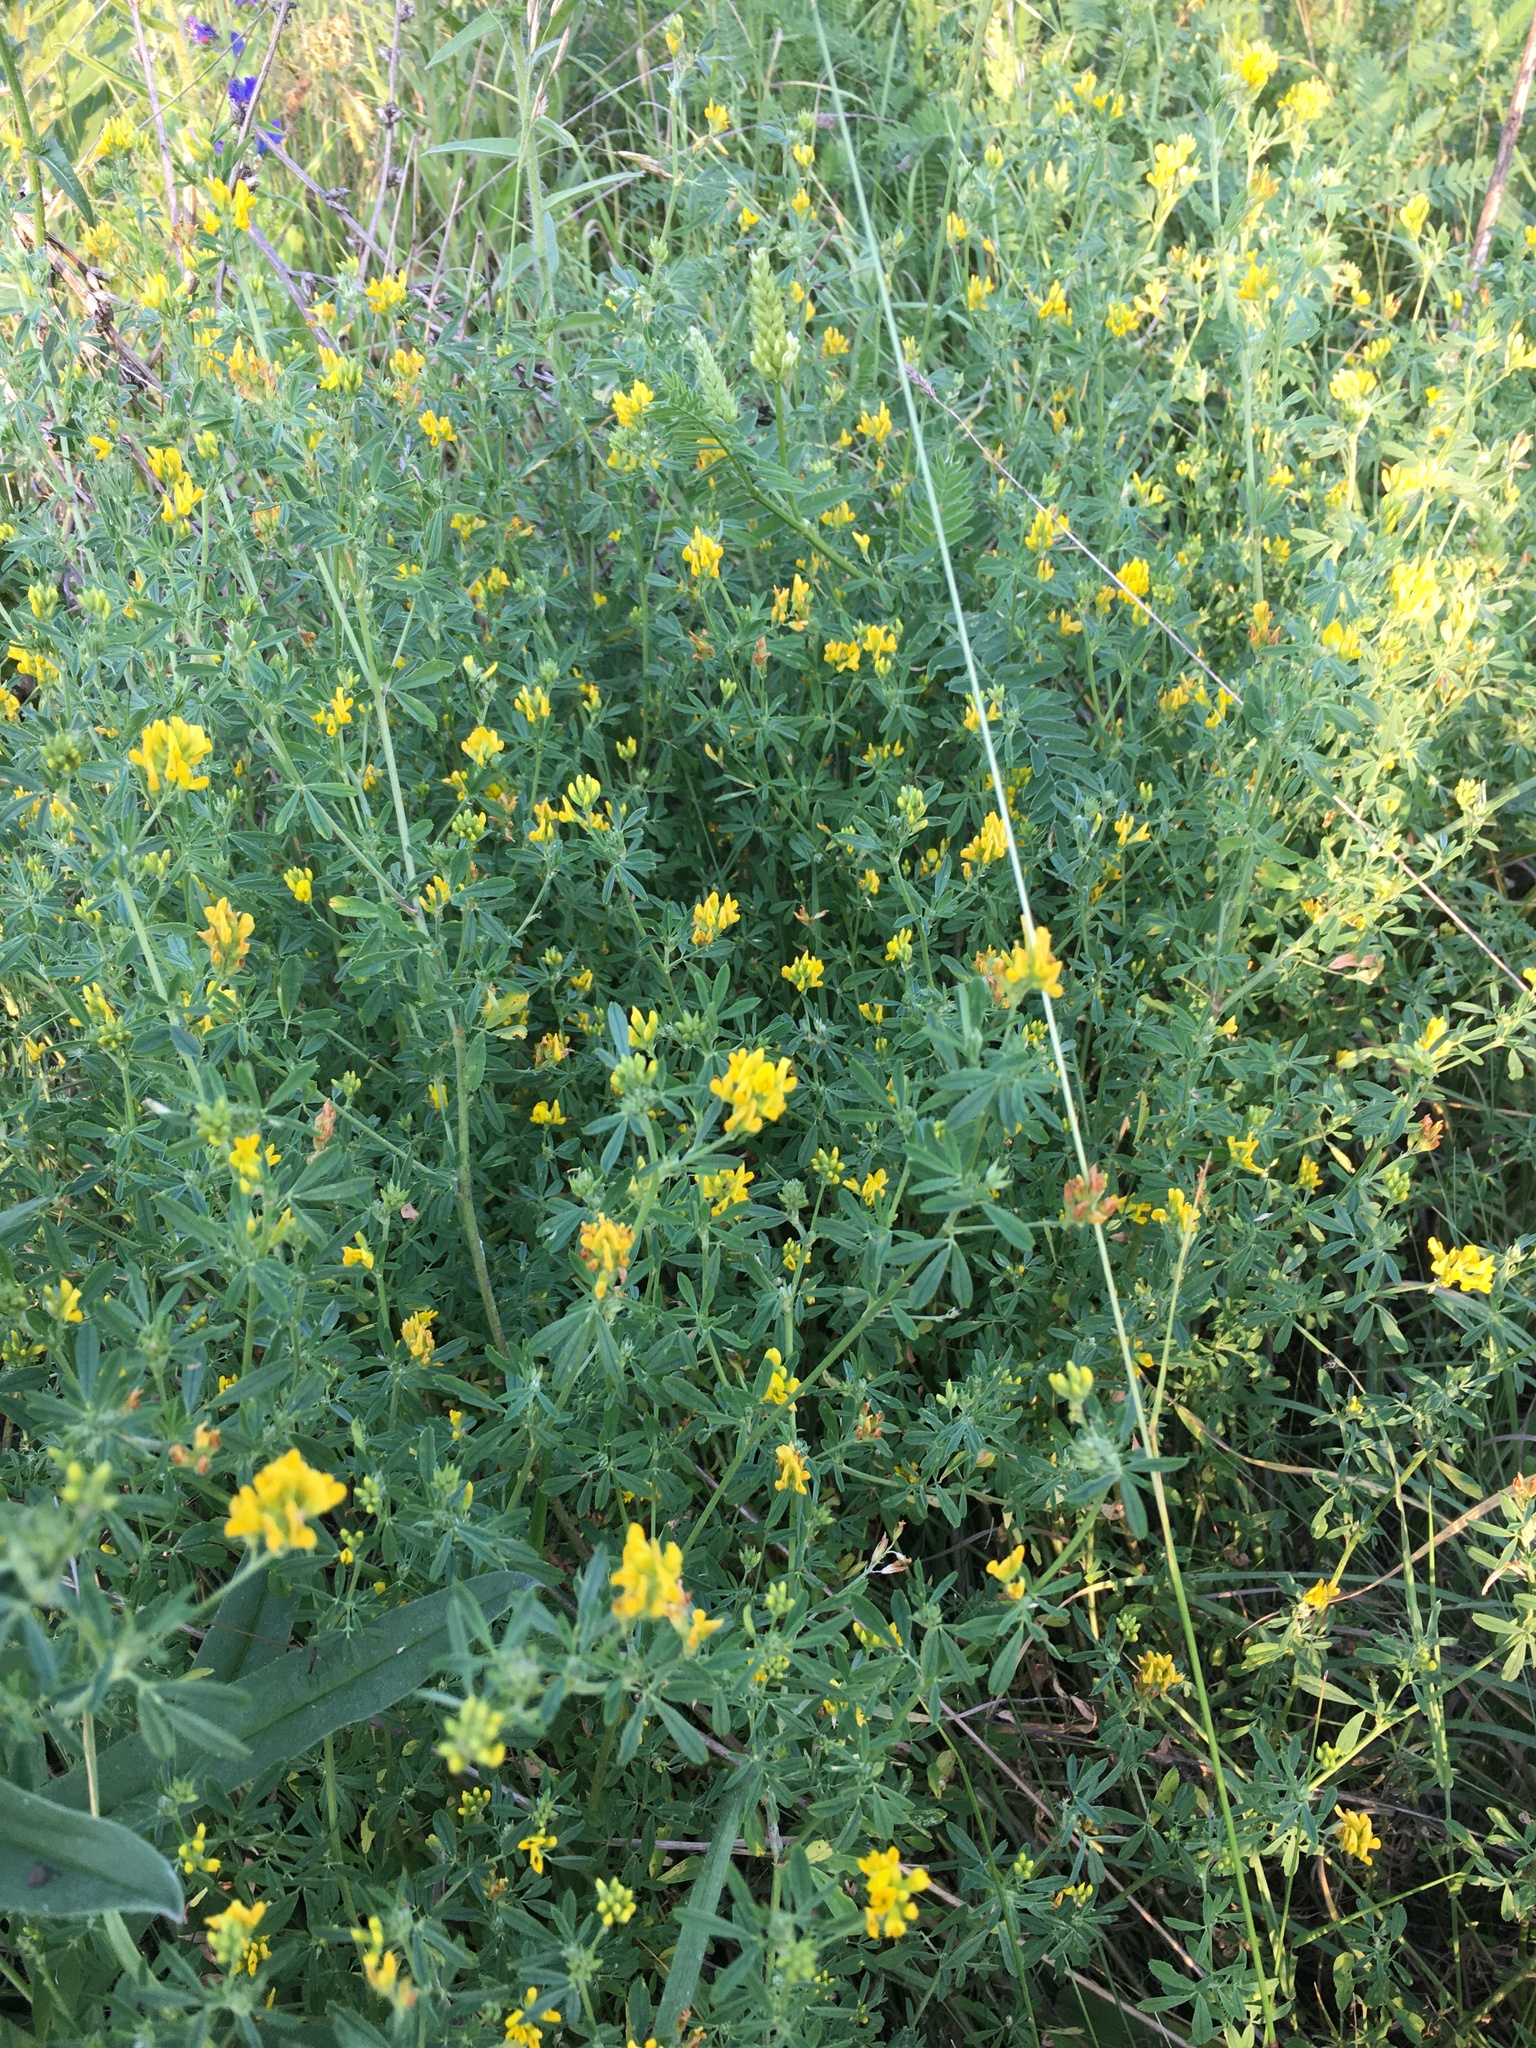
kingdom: Plantae
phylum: Tracheophyta
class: Magnoliopsida
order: Fabales
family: Fabaceae
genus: Medicago
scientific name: Medicago falcata
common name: Sickle medick
